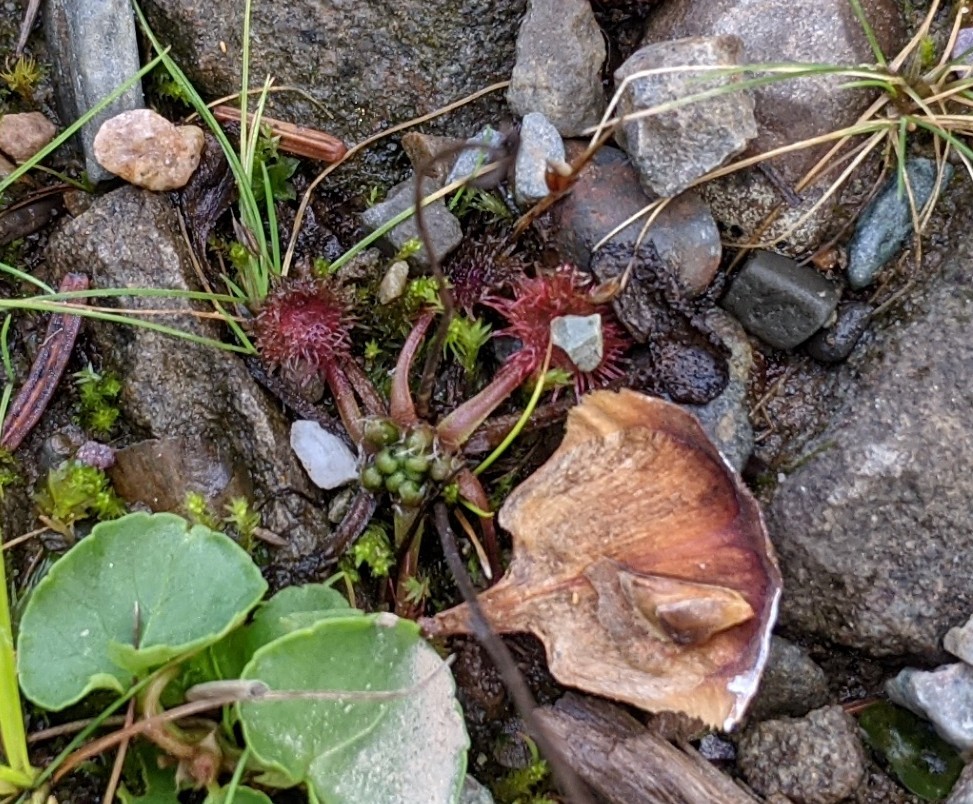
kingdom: Plantae
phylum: Tracheophyta
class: Magnoliopsida
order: Caryophyllales
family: Droseraceae
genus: Drosera
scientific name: Drosera rotundifolia
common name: Round-leaved sundew
